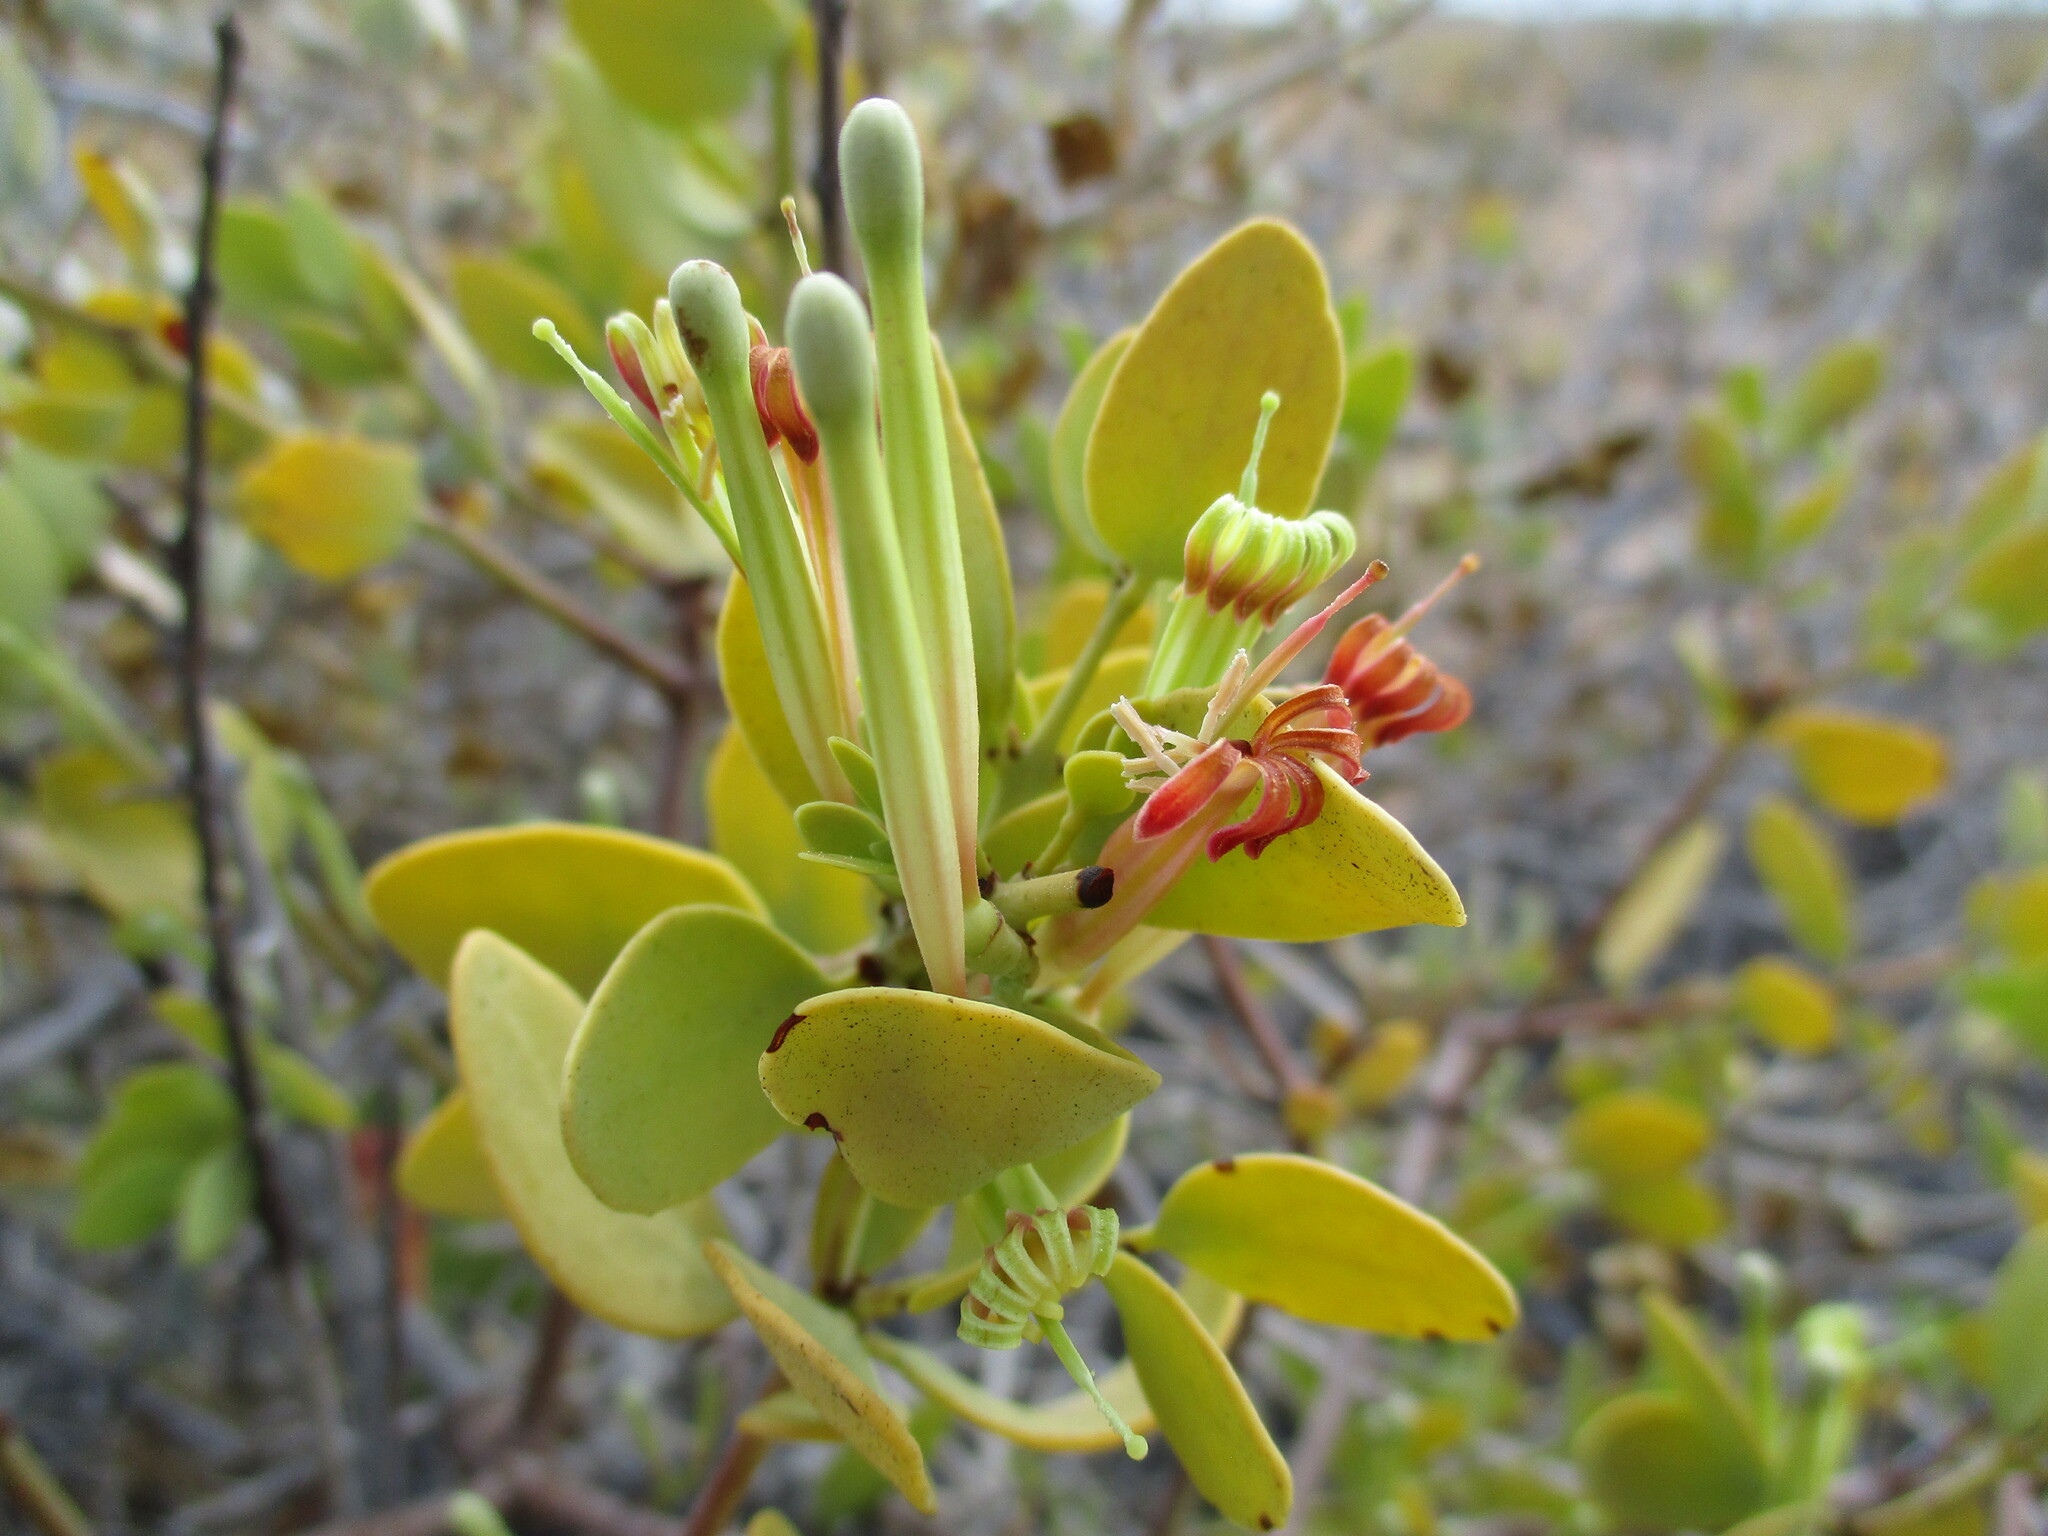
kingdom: Plantae
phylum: Tracheophyta
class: Magnoliopsida
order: Santalales
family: Loranthaceae
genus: Tapinanthus
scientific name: Tapinanthus oleifolius
